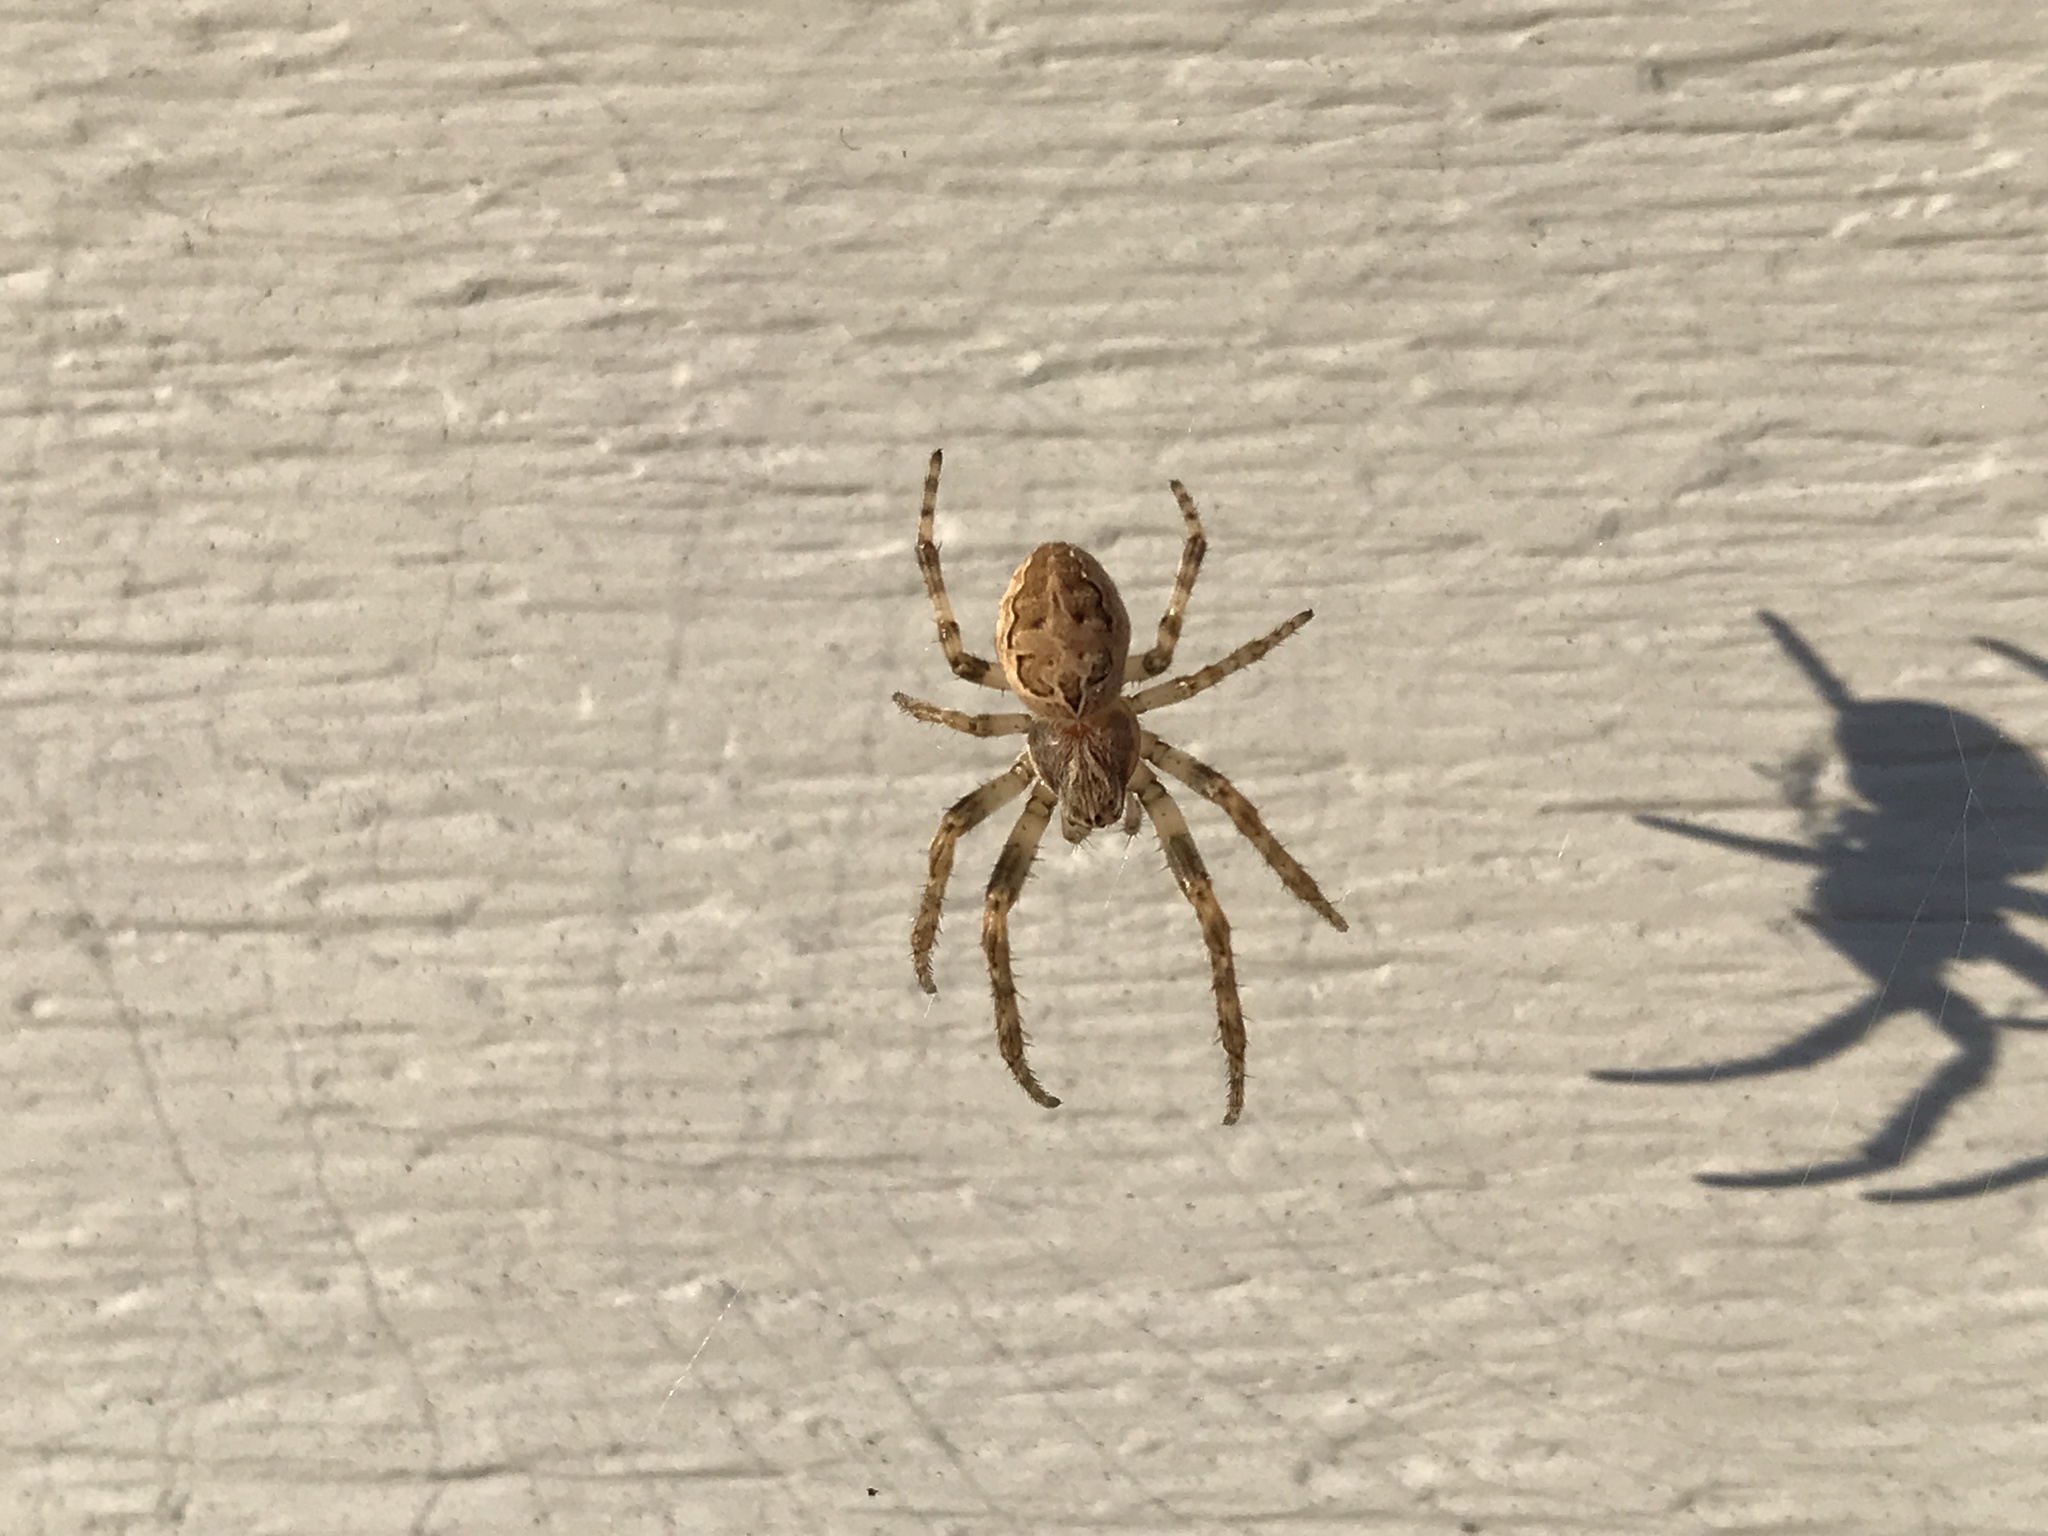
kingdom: Animalia
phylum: Arthropoda
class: Arachnida
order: Araneae
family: Araneidae
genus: Larinioides
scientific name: Larinioides sclopetarius
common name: Bridge orbweaver
